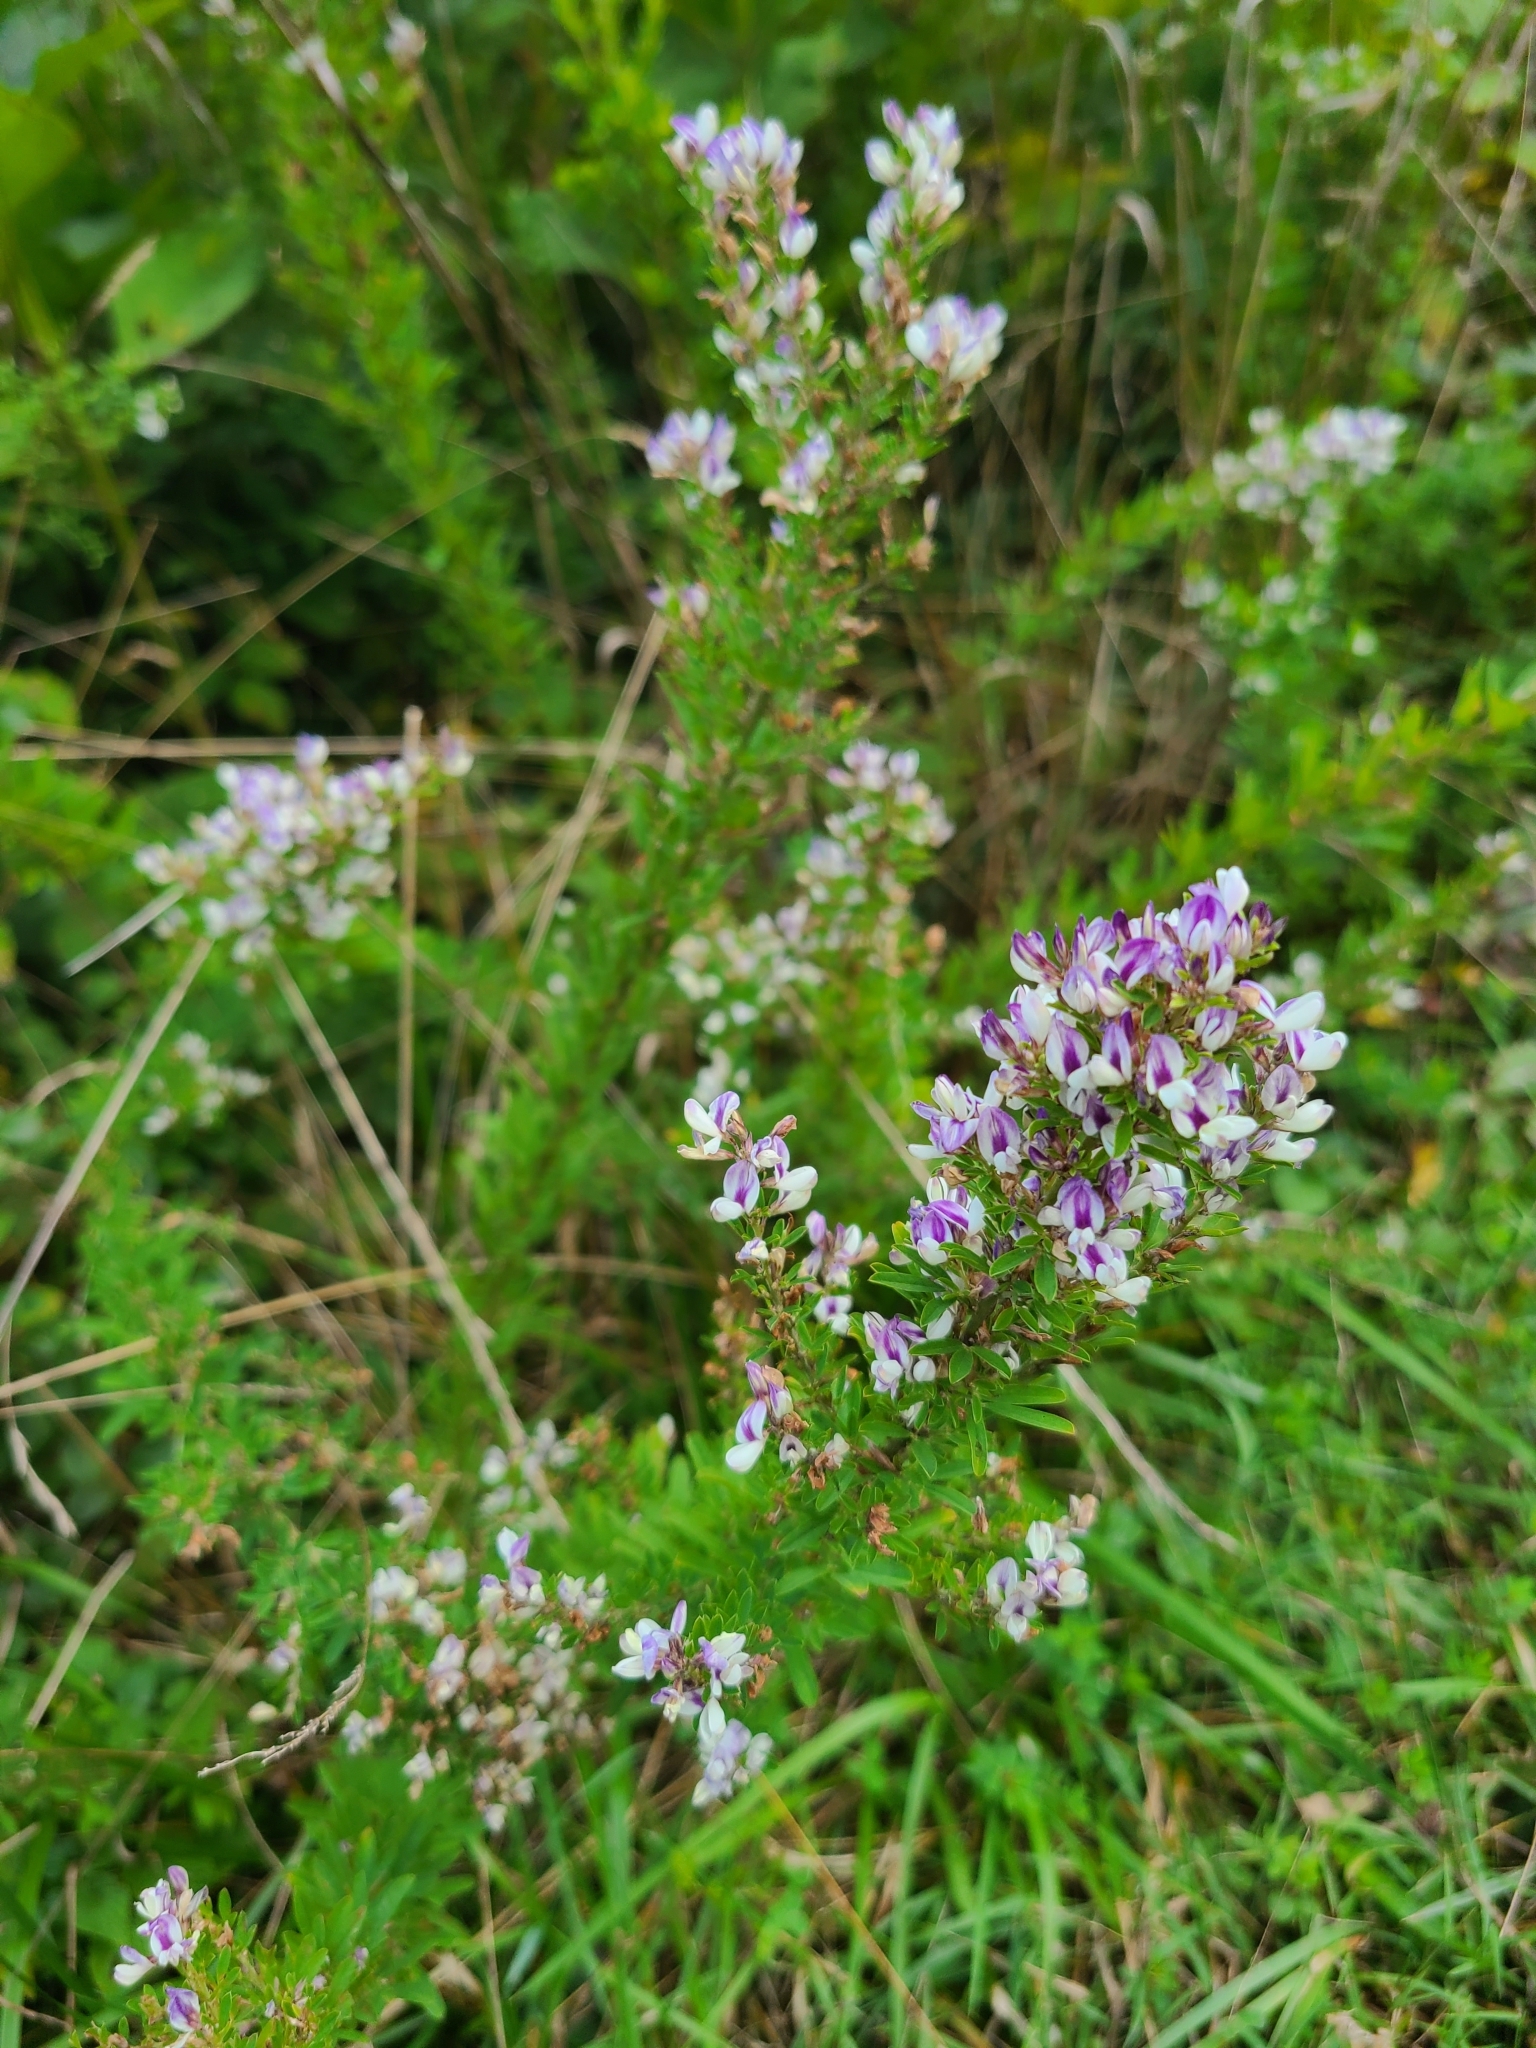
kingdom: Plantae
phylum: Tracheophyta
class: Magnoliopsida
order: Fabales
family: Fabaceae
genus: Lespedeza
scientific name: Lespedeza cuneata
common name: Chinese bush-clover
